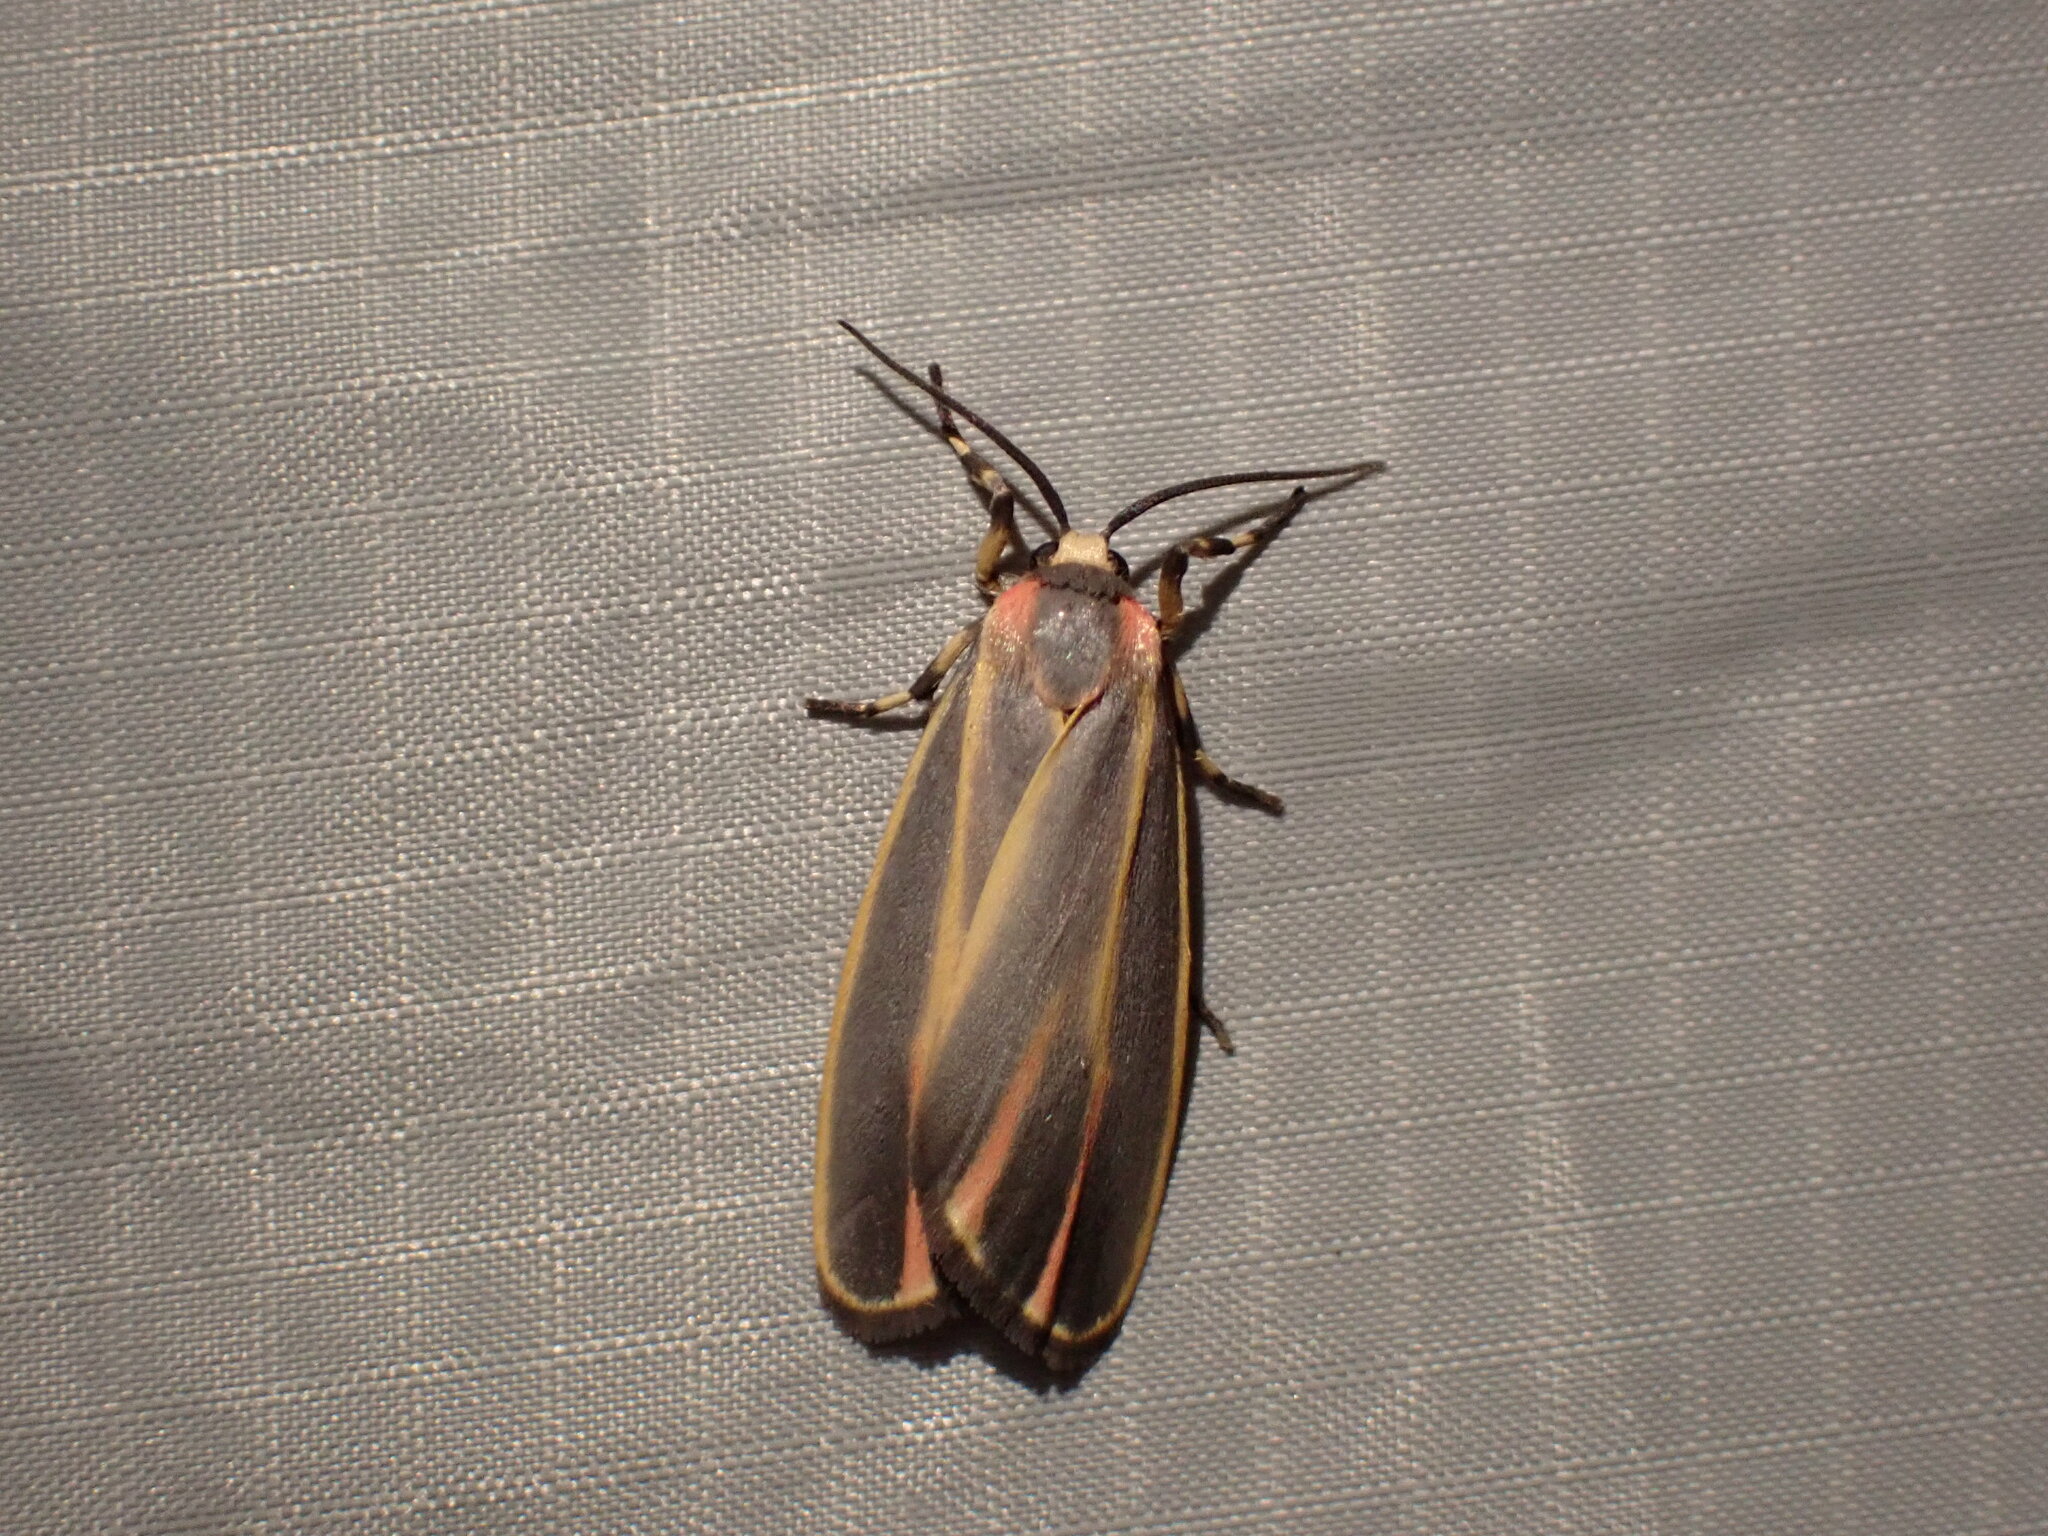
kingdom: Animalia
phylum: Arthropoda
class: Insecta
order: Lepidoptera
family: Erebidae
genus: Hypoprepia
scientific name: Hypoprepia fucosa
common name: Painted lichen moth
